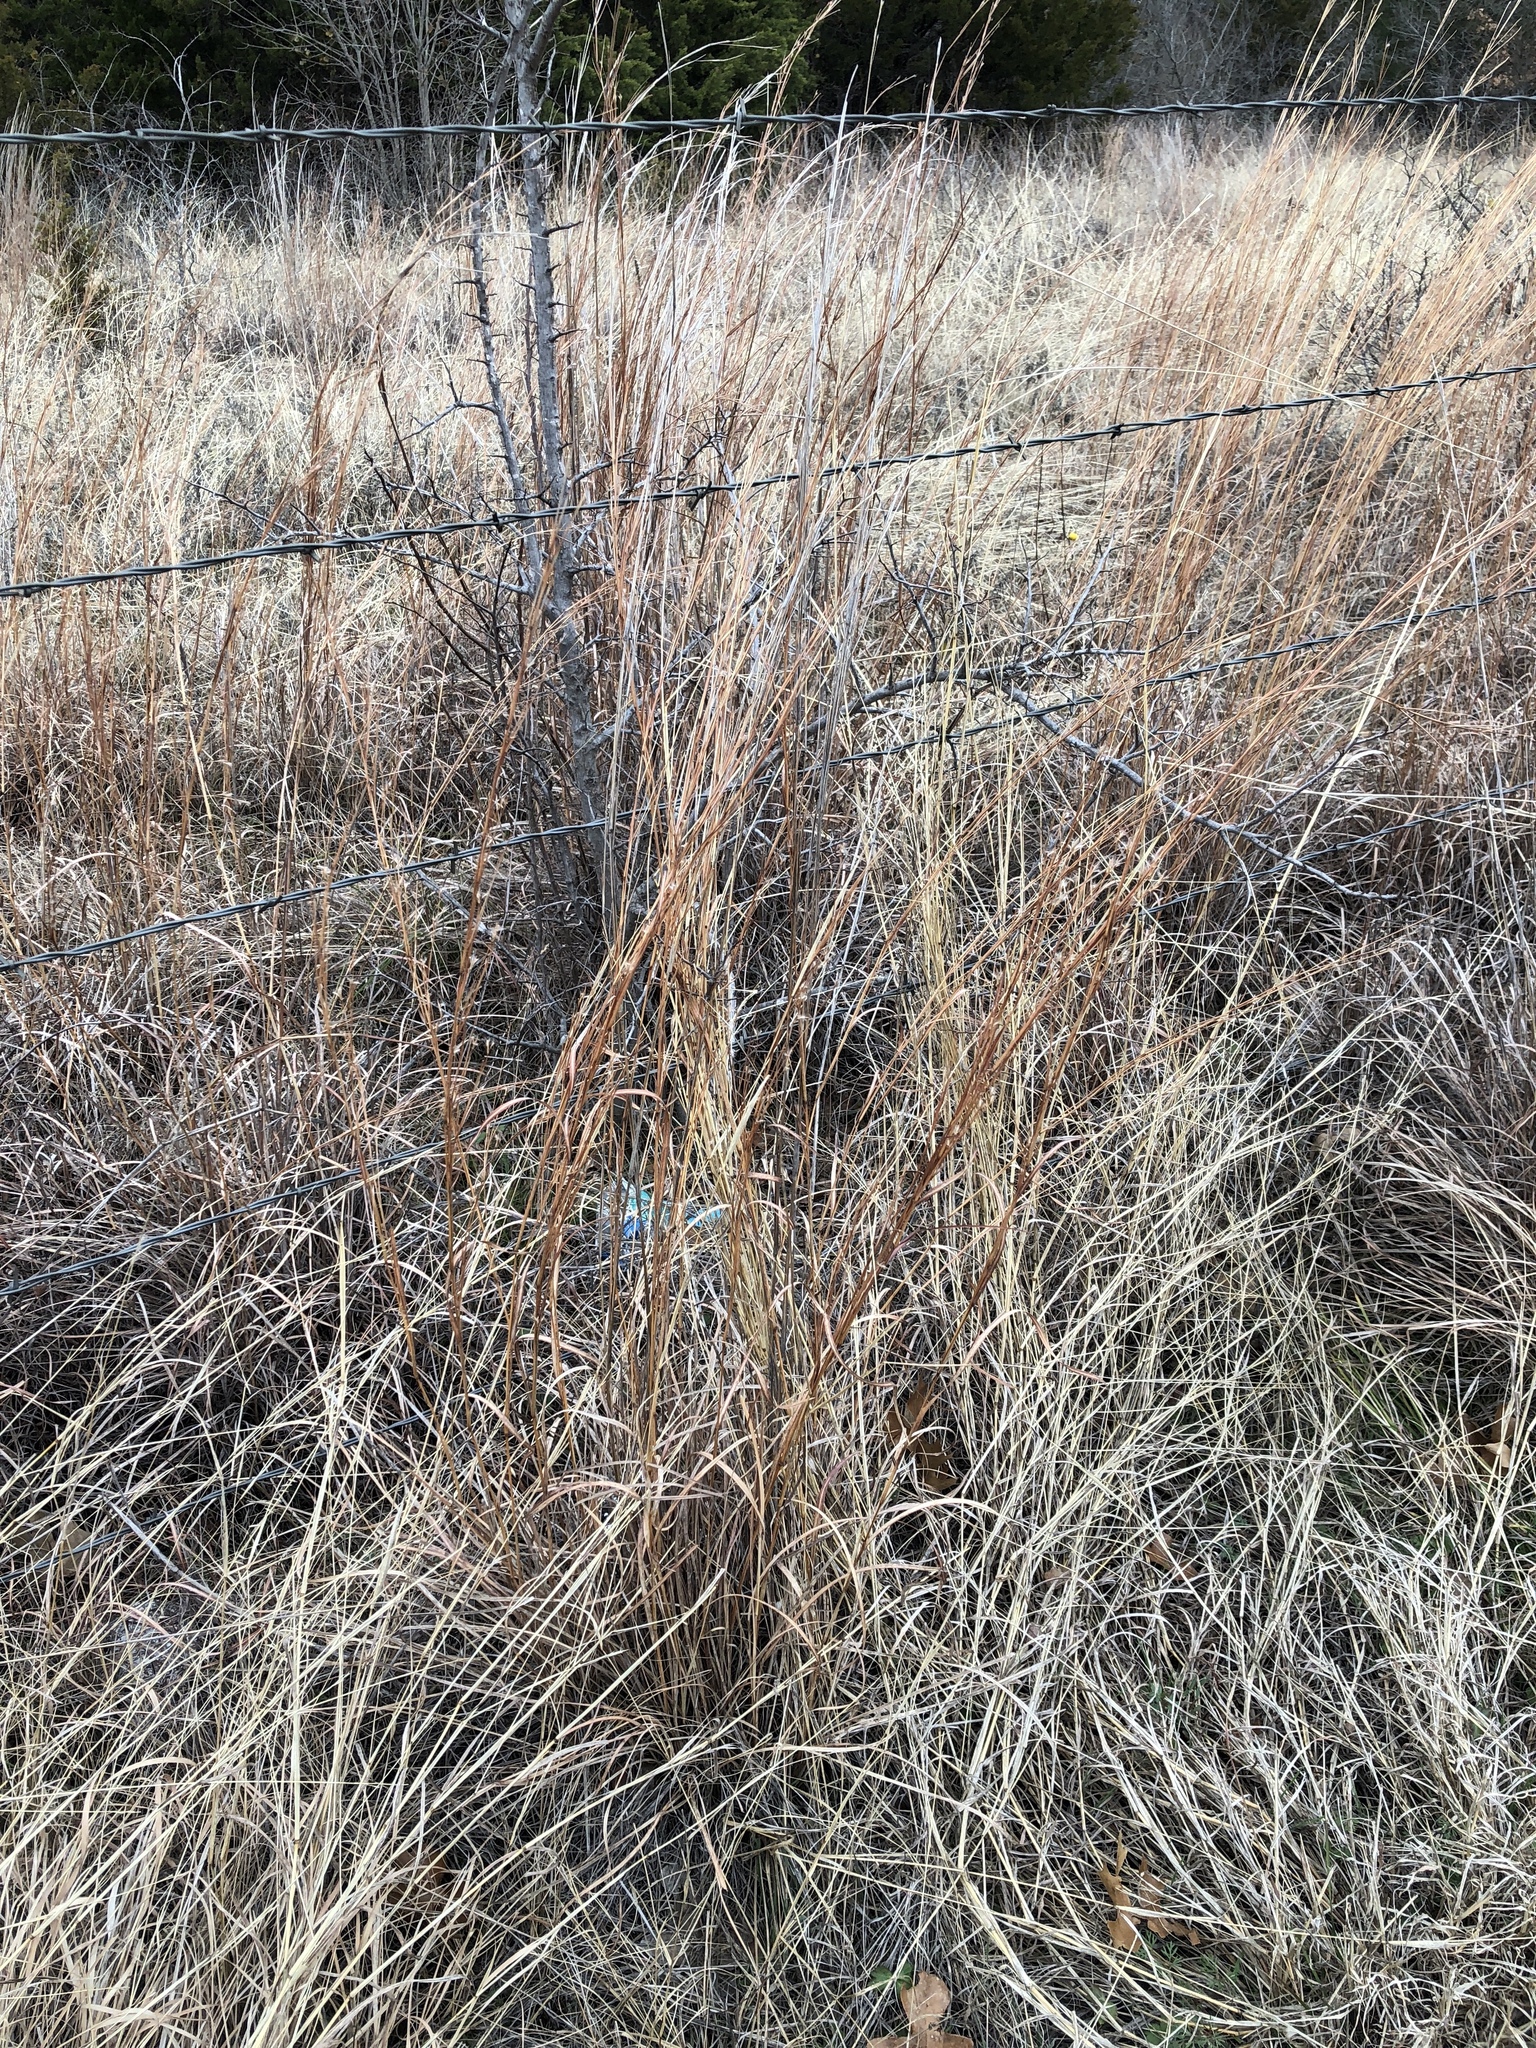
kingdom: Plantae
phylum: Tracheophyta
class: Liliopsida
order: Poales
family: Poaceae
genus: Schizachyrium
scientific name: Schizachyrium scoparium
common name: Little bluestem
